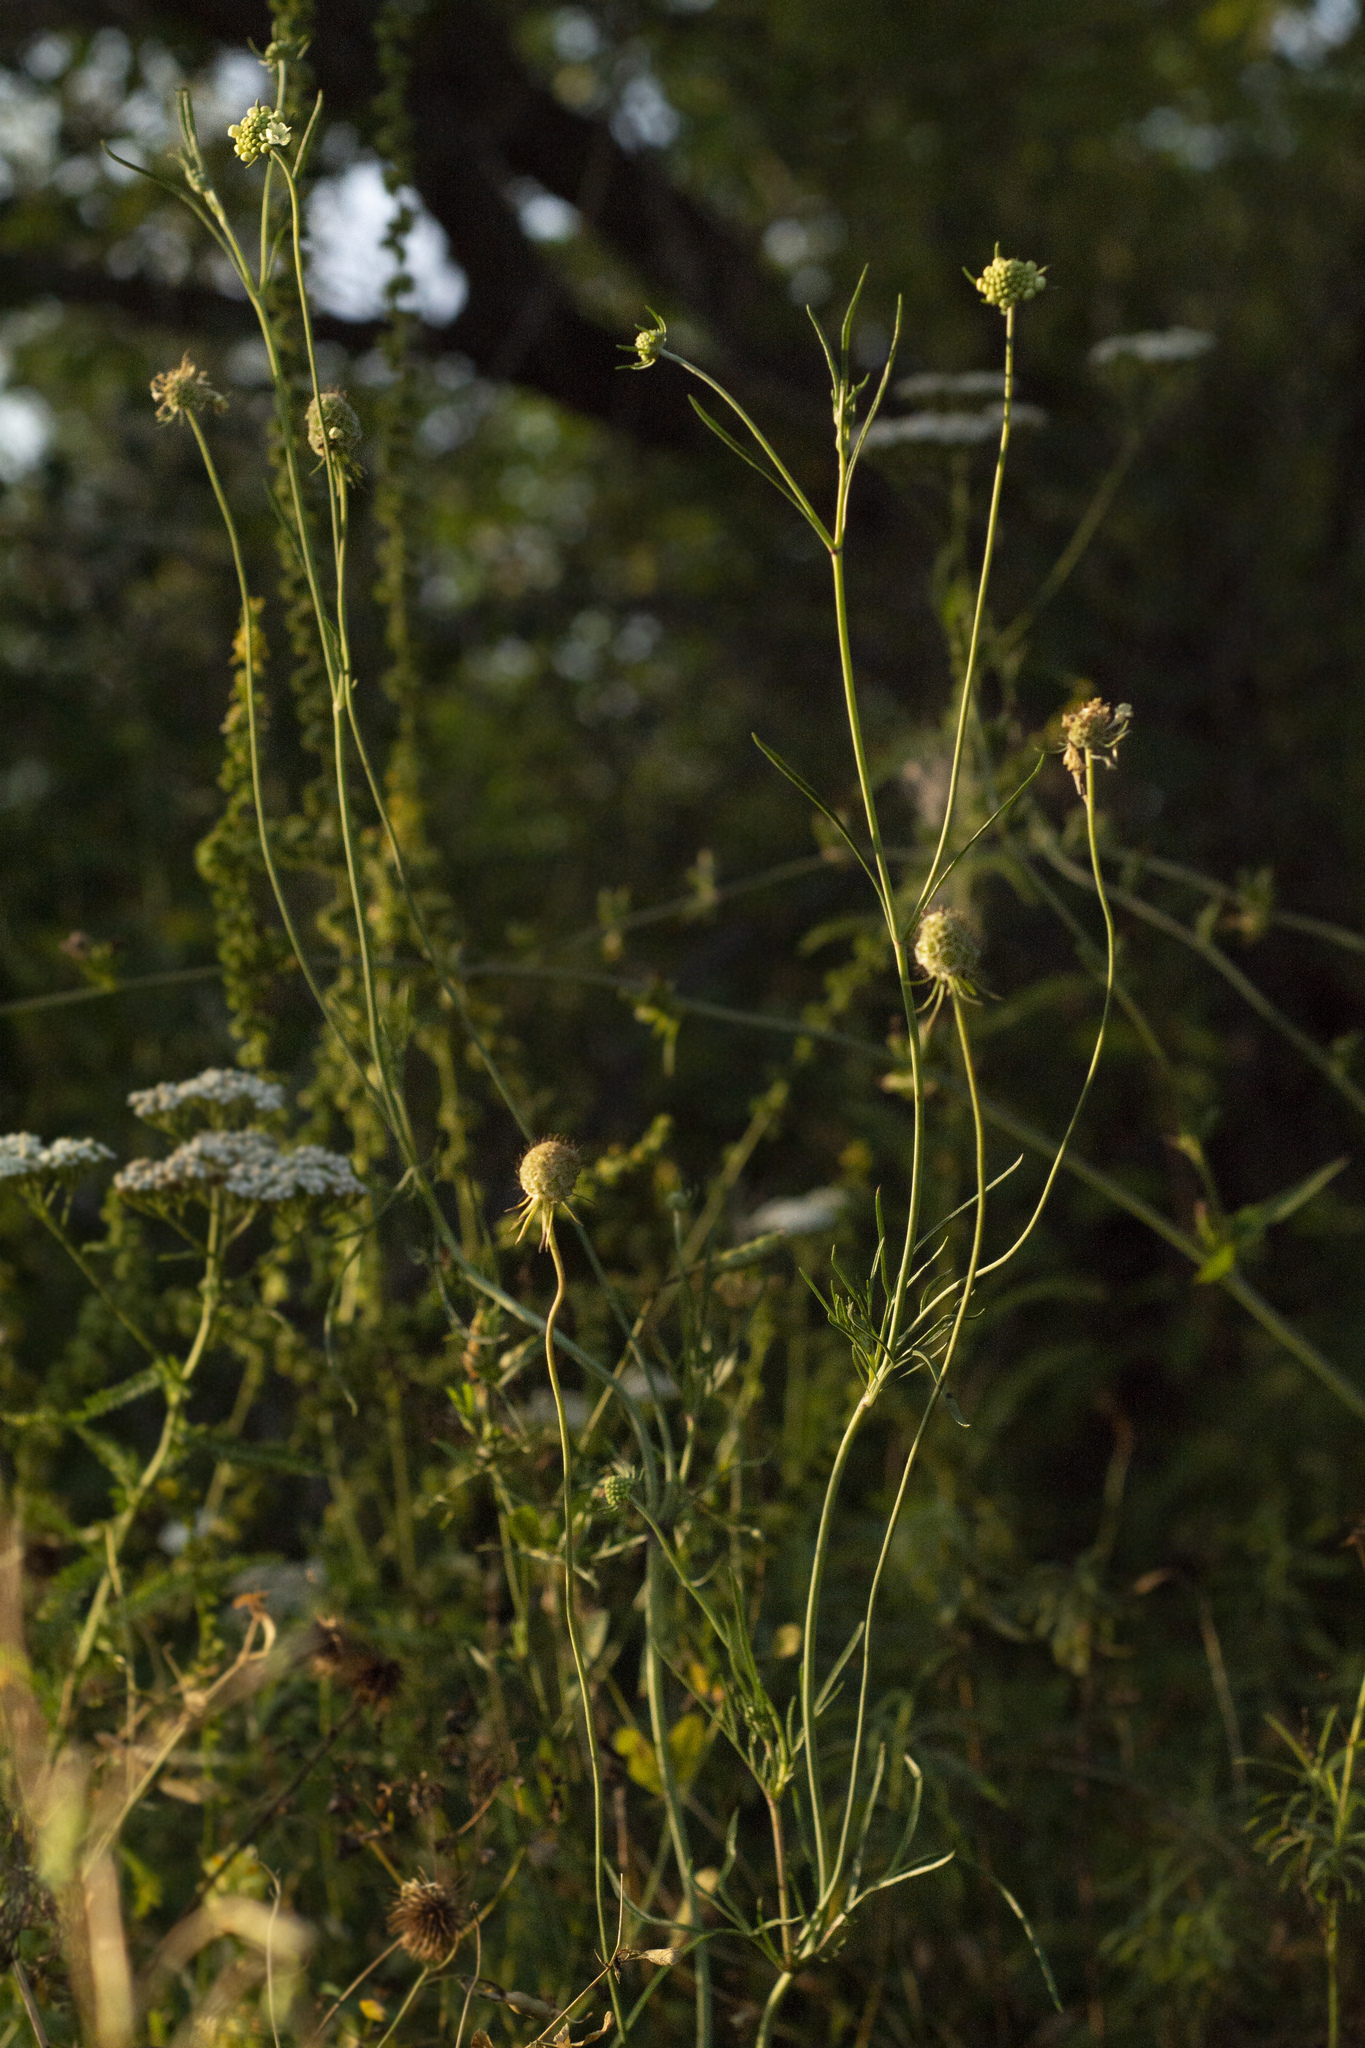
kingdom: Plantae
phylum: Tracheophyta
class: Magnoliopsida
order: Dipsacales
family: Caprifoliaceae
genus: Scabiosa
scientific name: Scabiosa ochroleuca
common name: Cream pincushions
